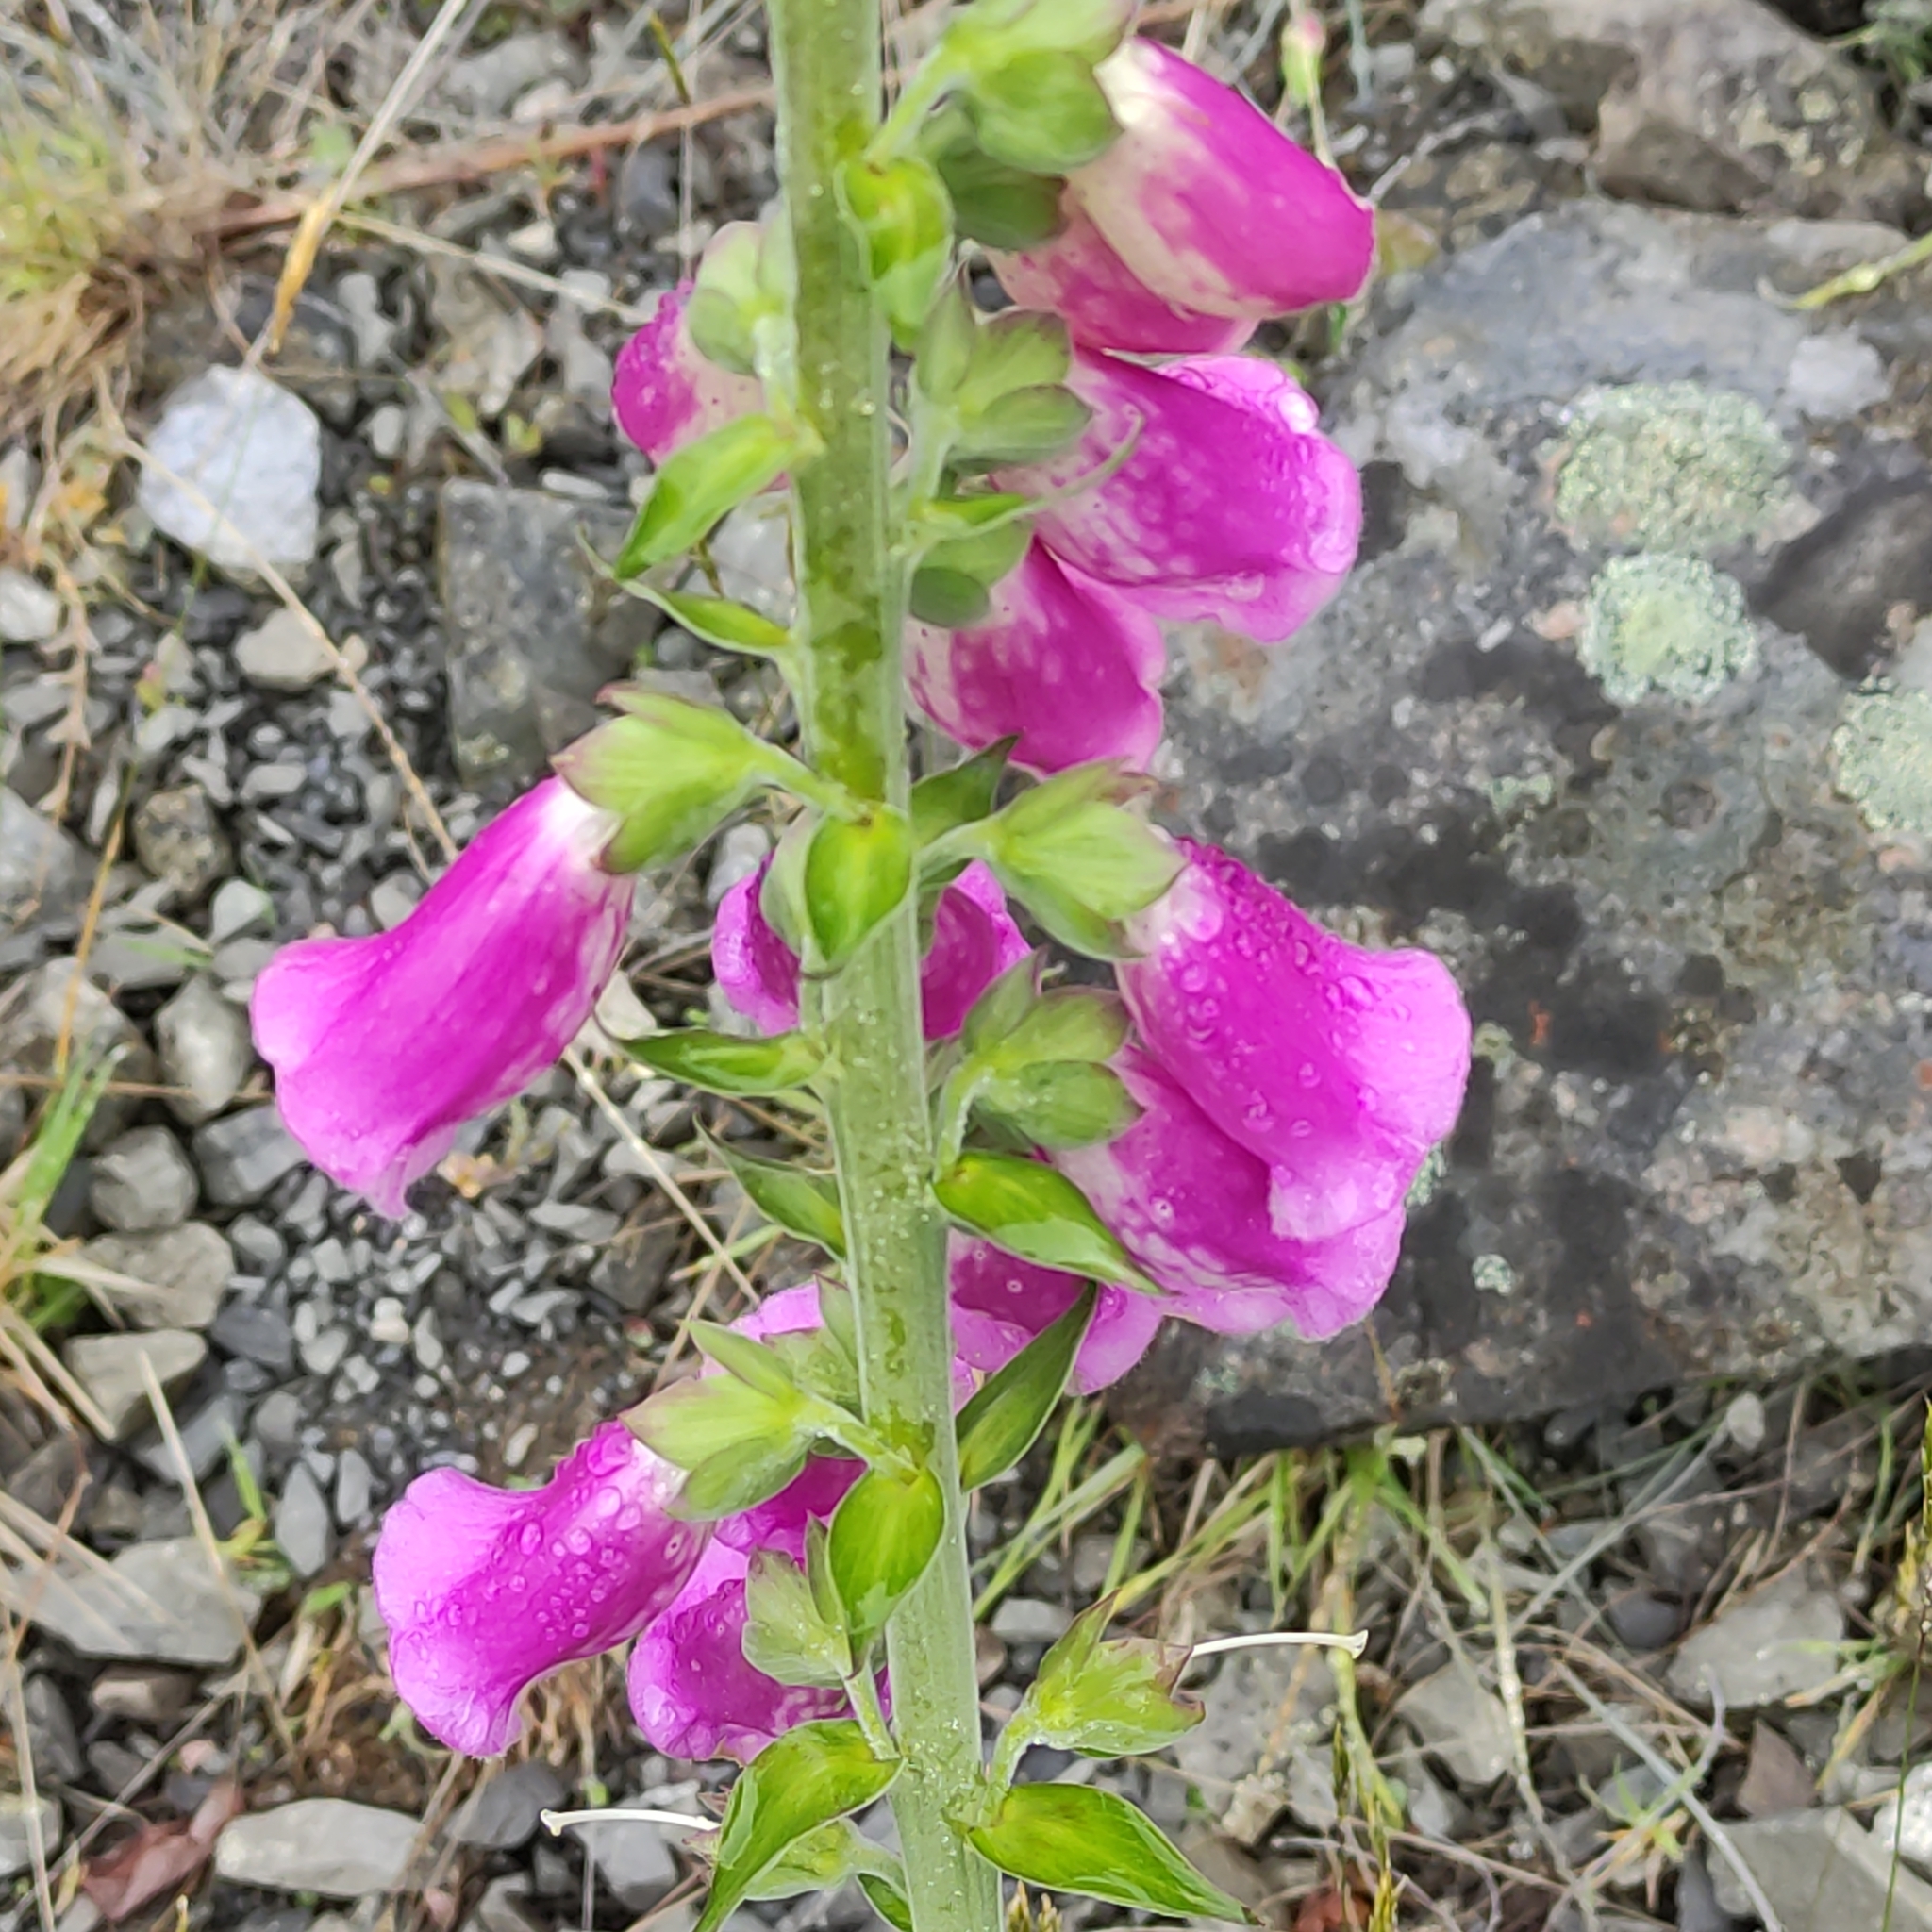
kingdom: Plantae
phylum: Tracheophyta
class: Magnoliopsida
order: Lamiales
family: Plantaginaceae
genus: Digitalis
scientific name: Digitalis purpurea
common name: Foxglove
